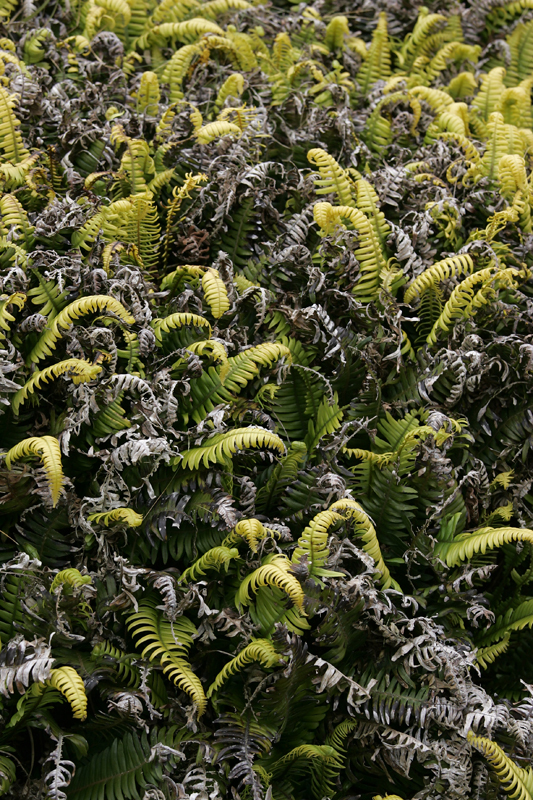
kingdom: Plantae
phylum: Tracheophyta
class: Polypodiopsida
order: Polypodiales
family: Blechnaceae
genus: Austroblechnum
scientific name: Austroblechnum durum
